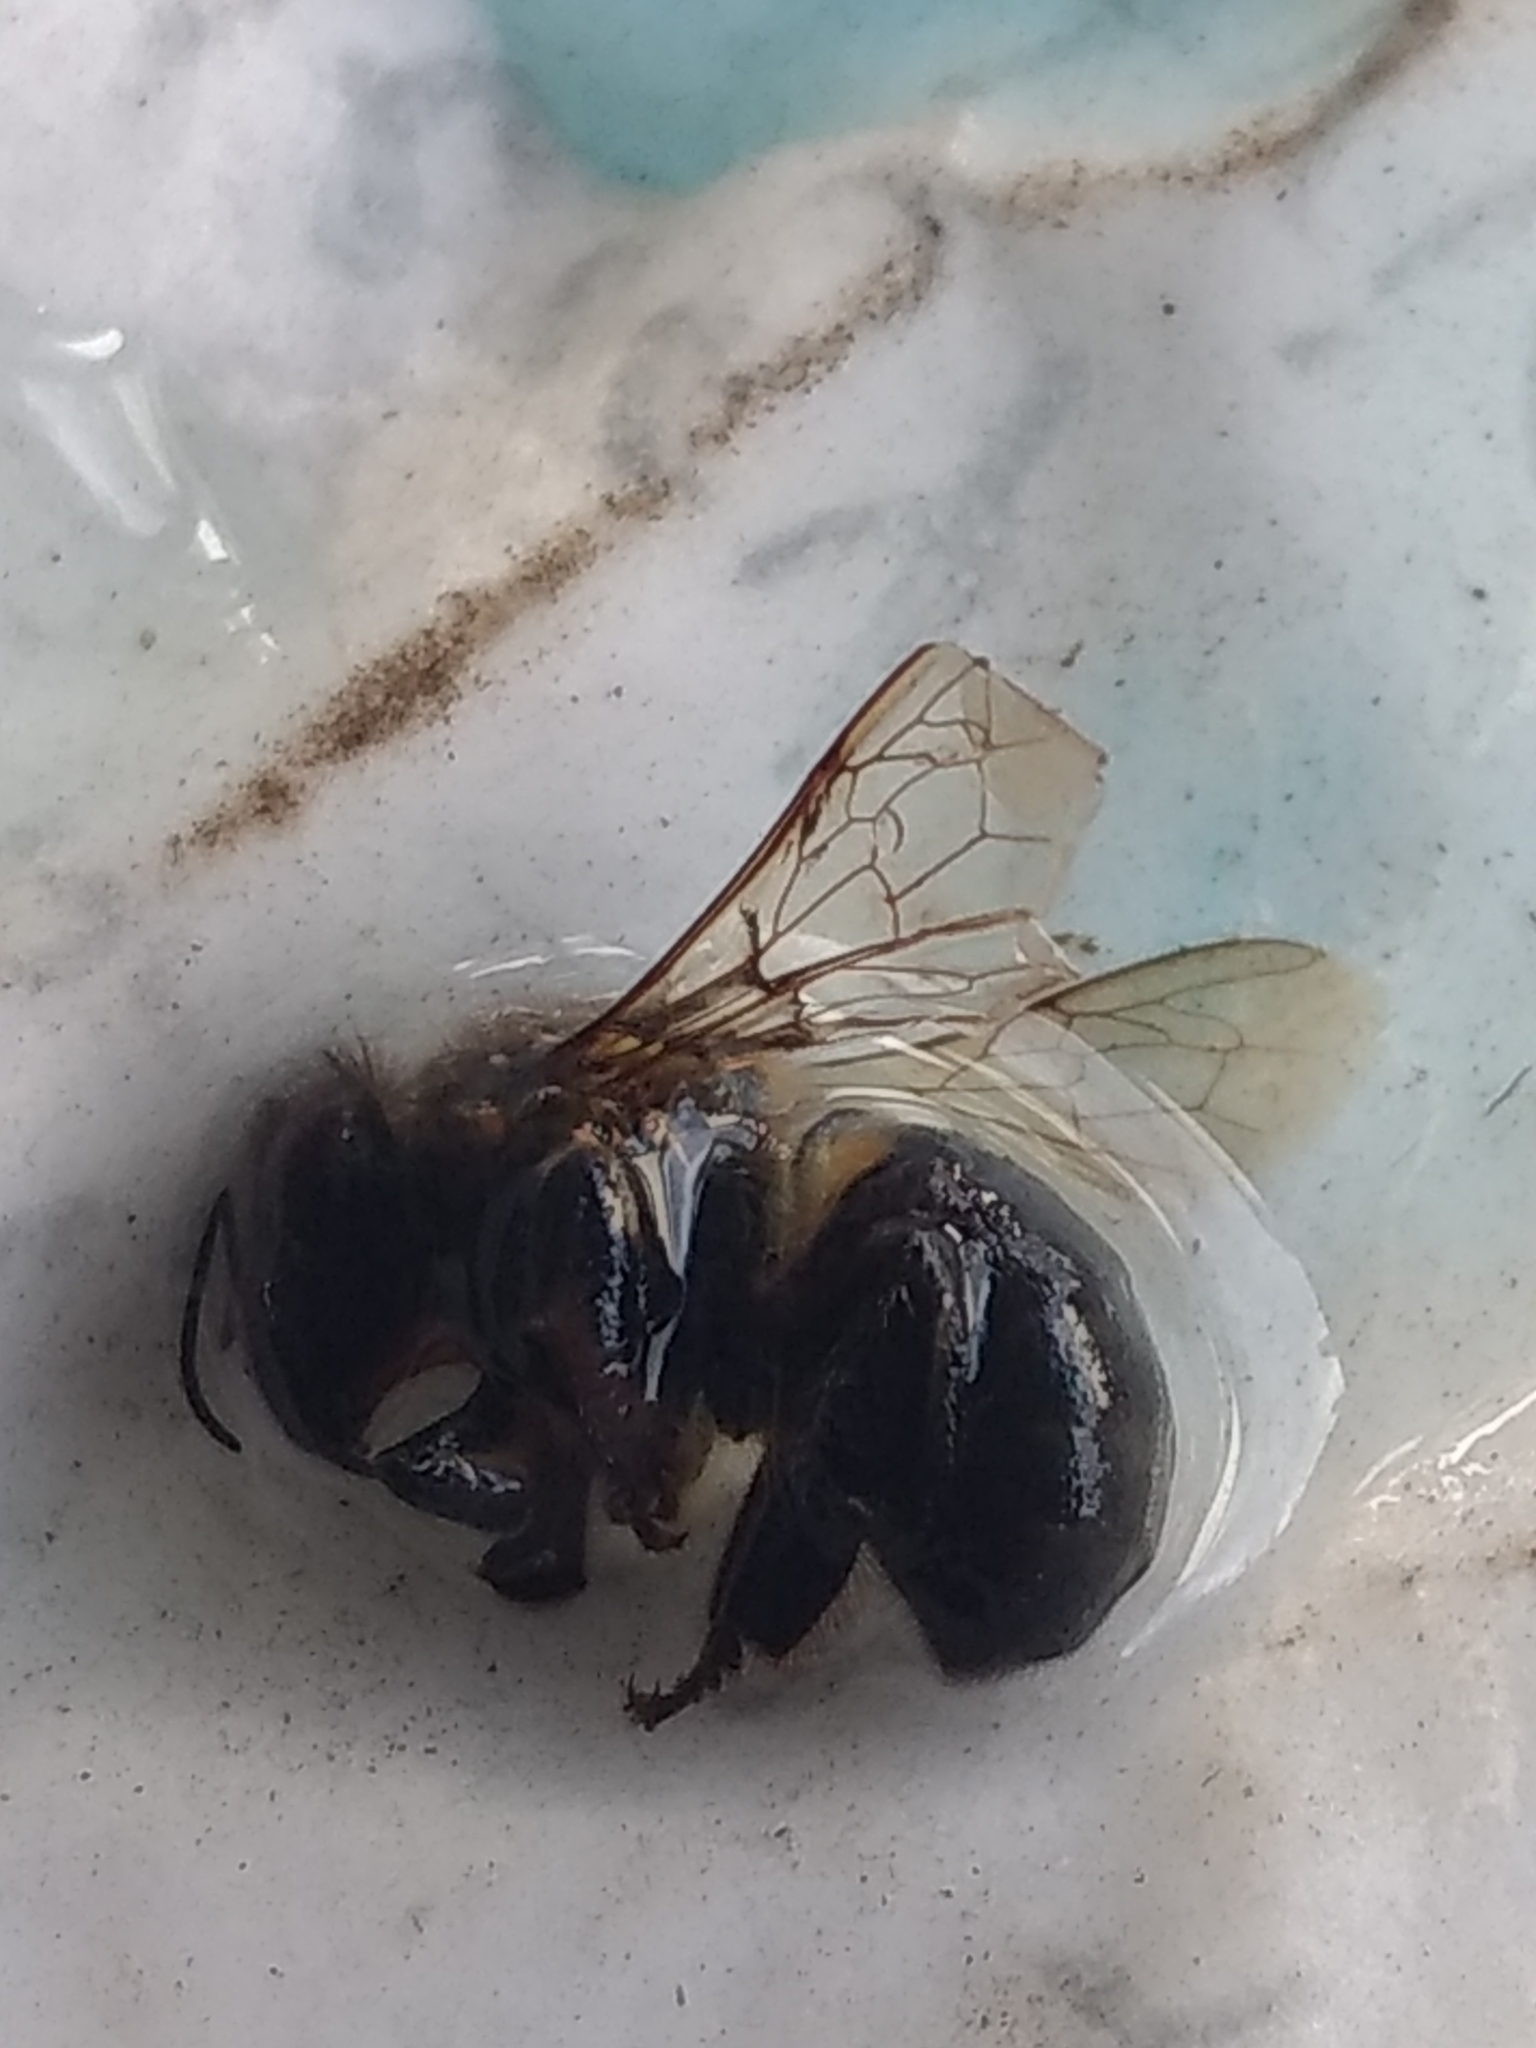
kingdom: Animalia
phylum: Arthropoda
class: Insecta
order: Hymenoptera
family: Apidae
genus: Apis
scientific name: Apis mellifera
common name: Honey bee
